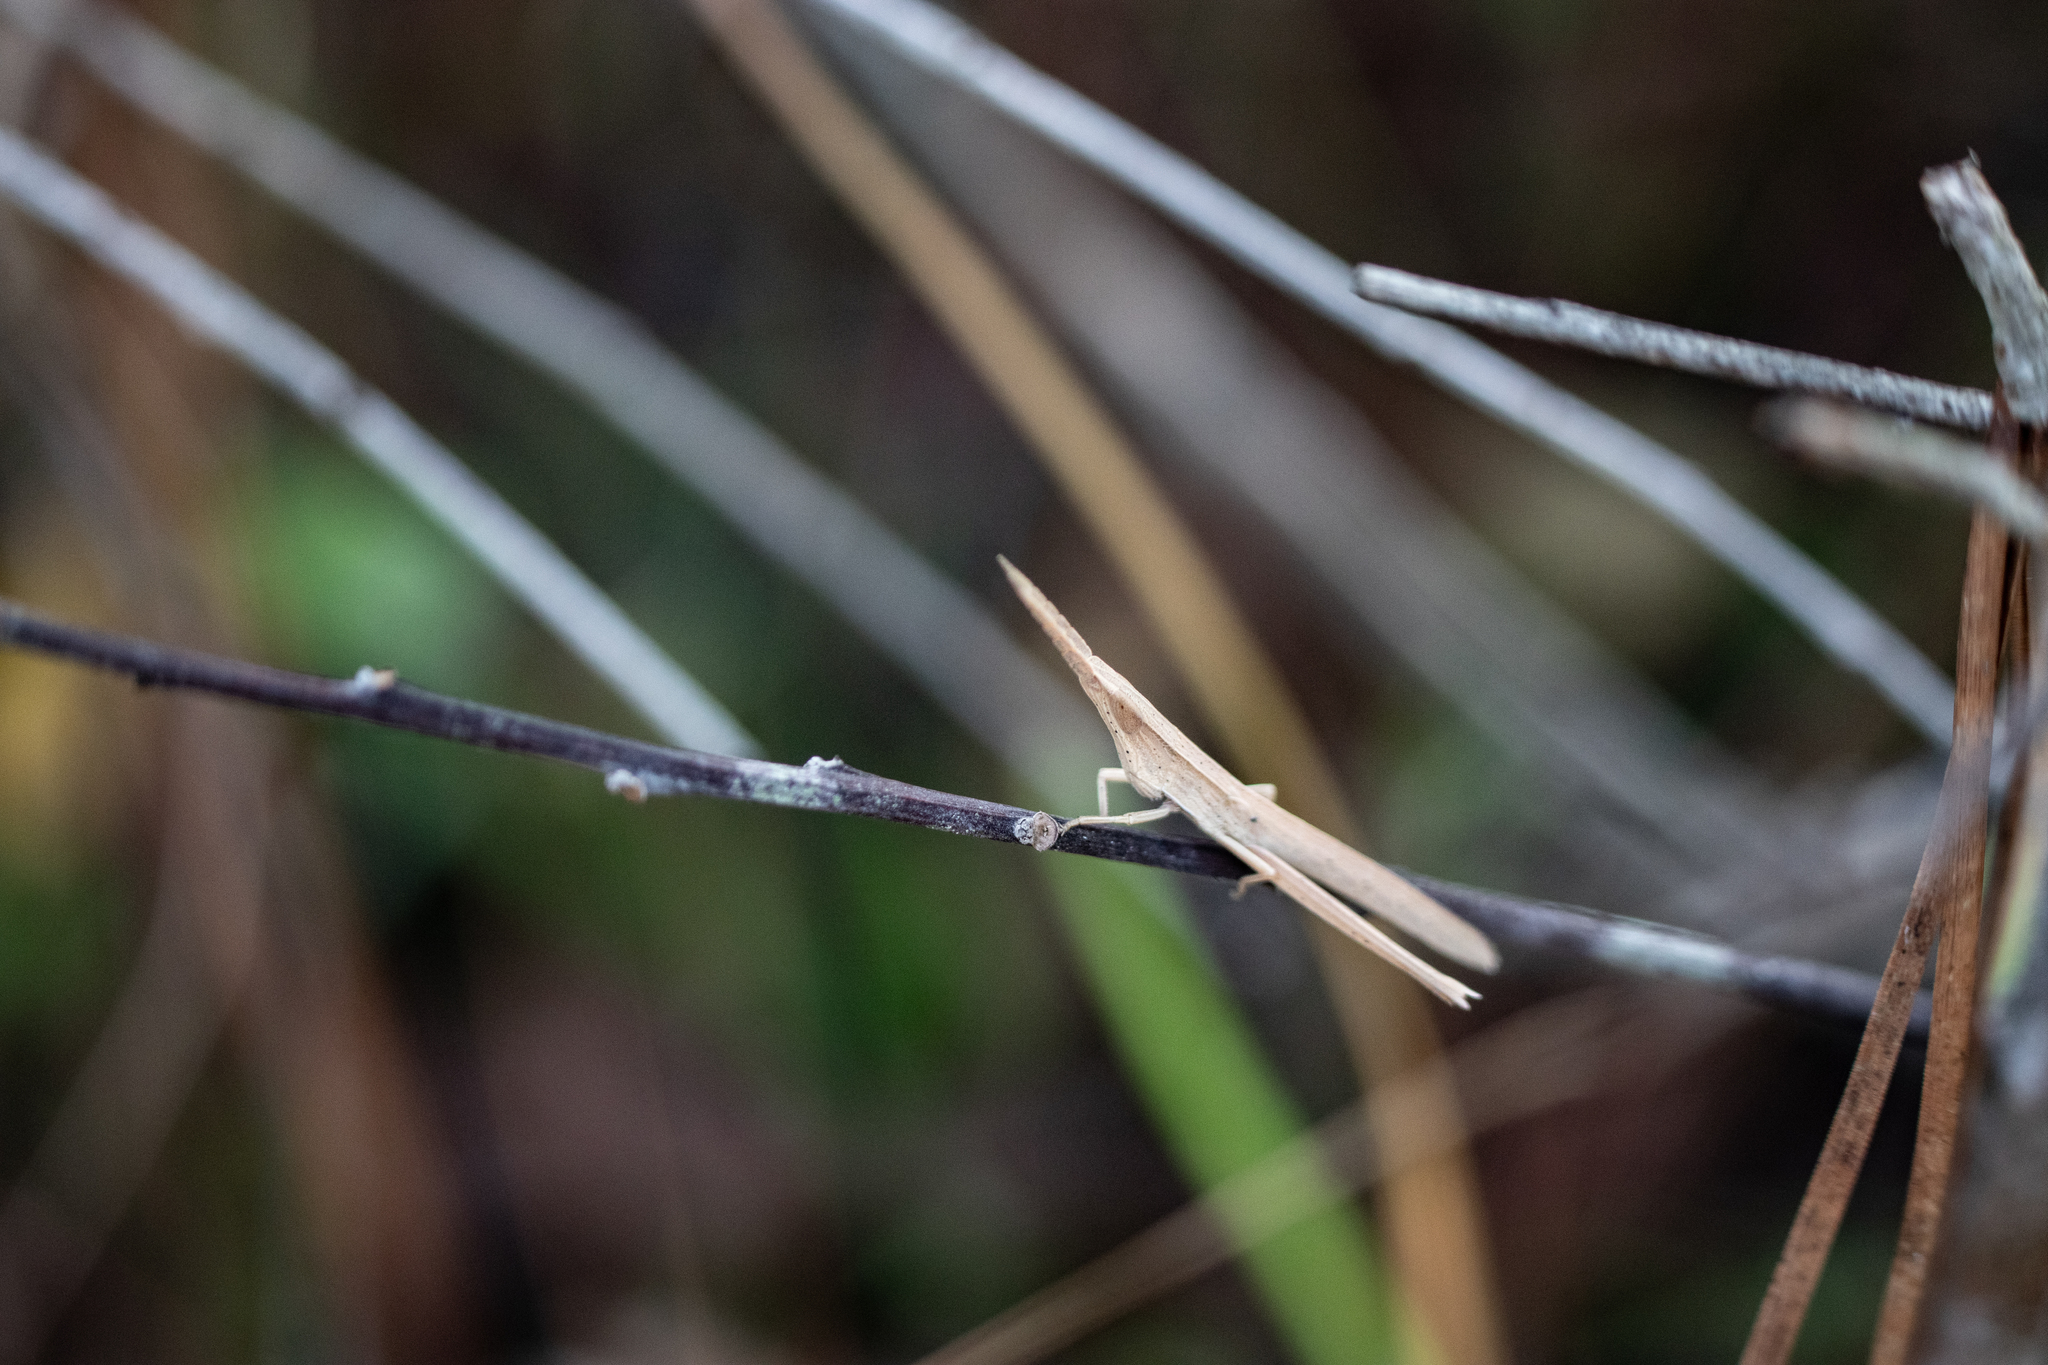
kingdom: Animalia
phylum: Arthropoda
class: Insecta
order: Orthoptera
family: Acrididae
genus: Achurum
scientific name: Achurum carinatum
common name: Long-headed toothpick grasshopper
